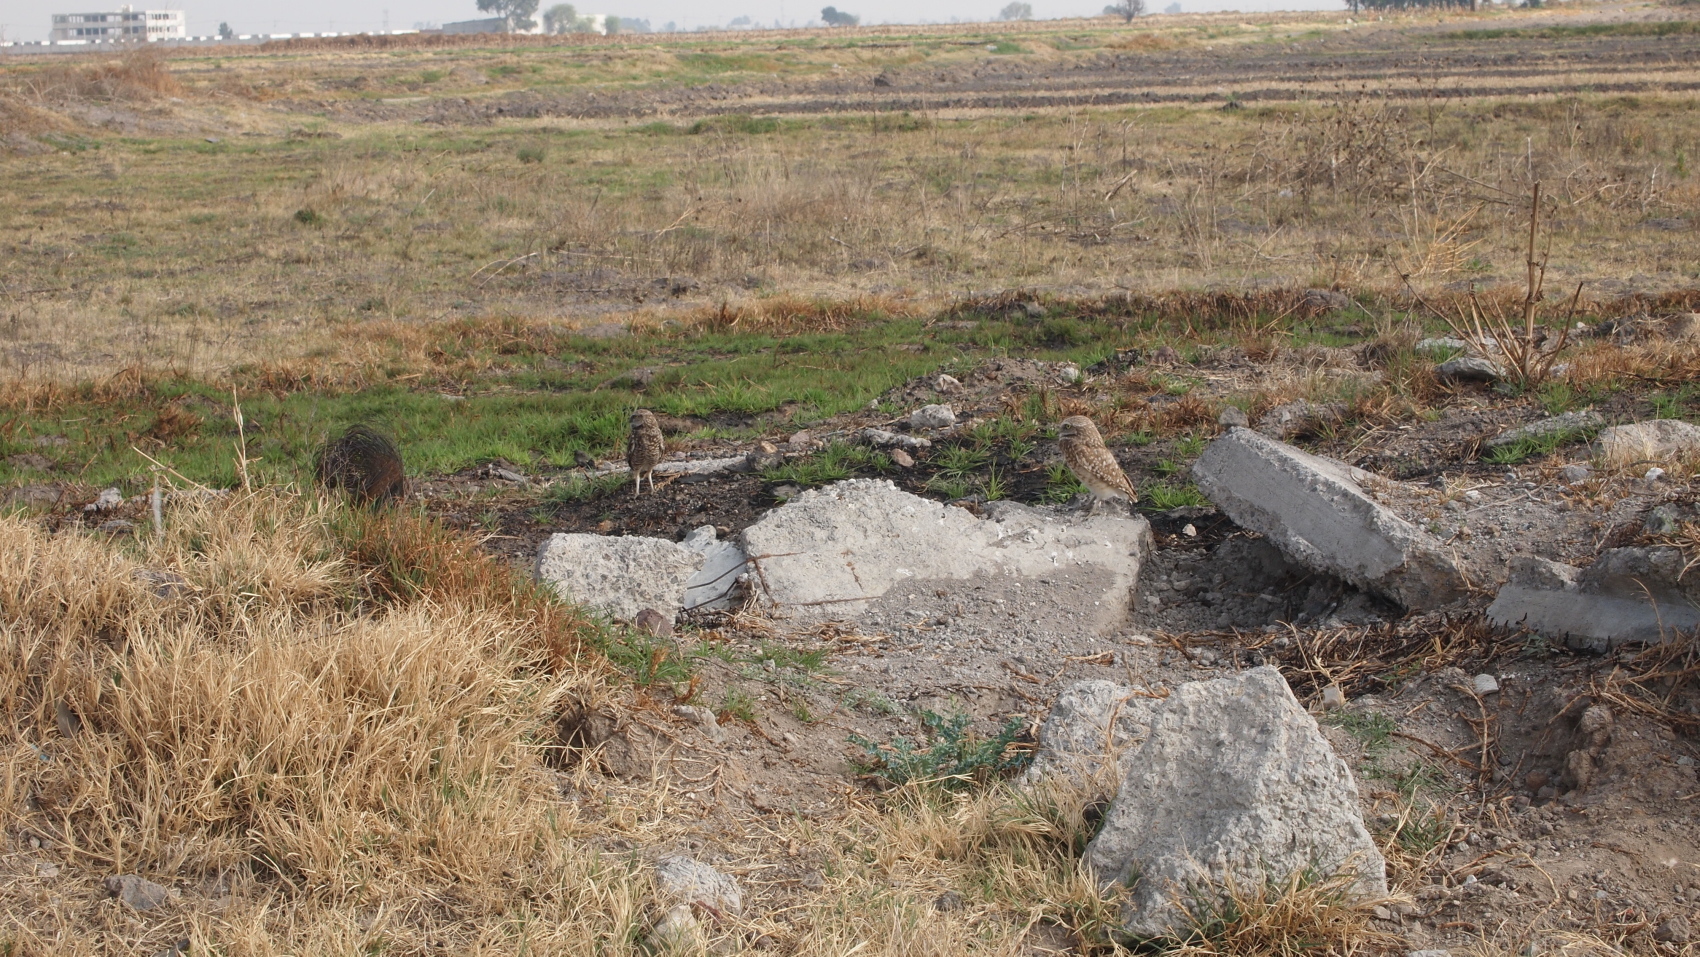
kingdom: Animalia
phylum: Chordata
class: Aves
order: Strigiformes
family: Strigidae
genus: Athene
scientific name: Athene cunicularia
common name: Burrowing owl
